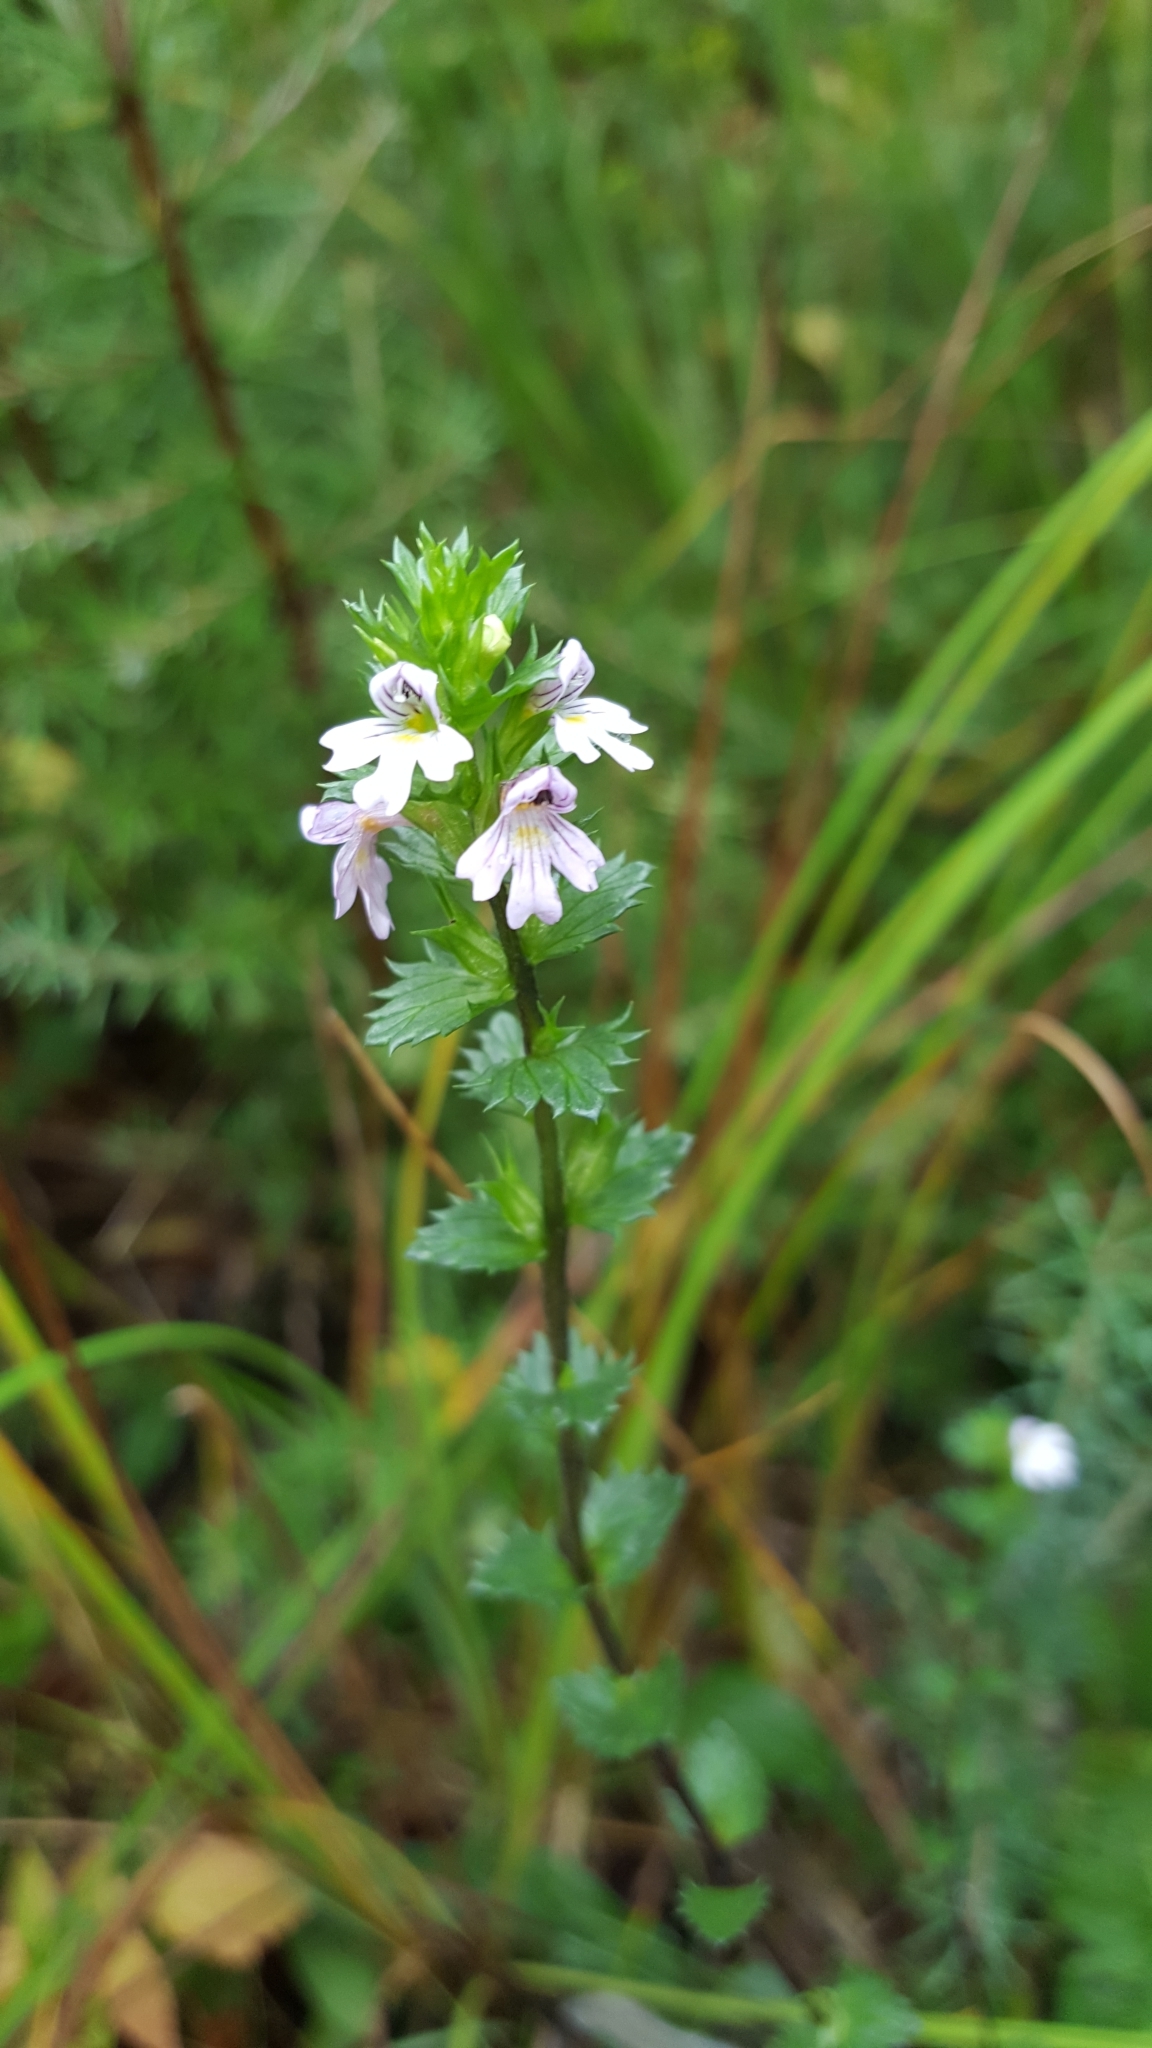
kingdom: Plantae
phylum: Tracheophyta
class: Magnoliopsida
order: Lamiales
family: Orobanchaceae
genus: Euphrasia
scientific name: Euphrasia stricta
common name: Drug eyebright
